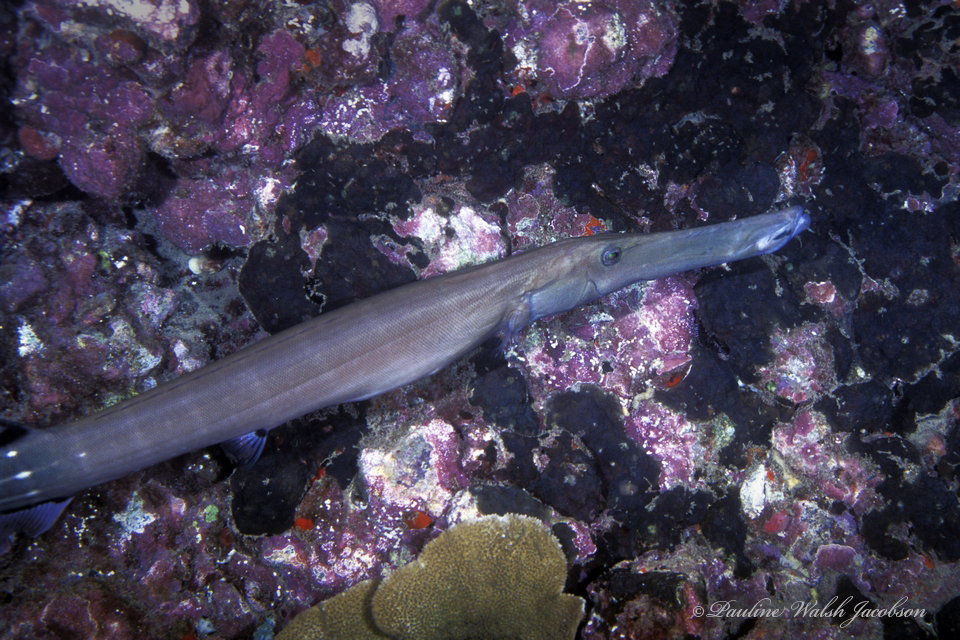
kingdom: Animalia
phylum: Chordata
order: Syngnathiformes
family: Aulostomidae
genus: Aulostomus
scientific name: Aulostomus chinensis
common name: Chinese trumpetfish
